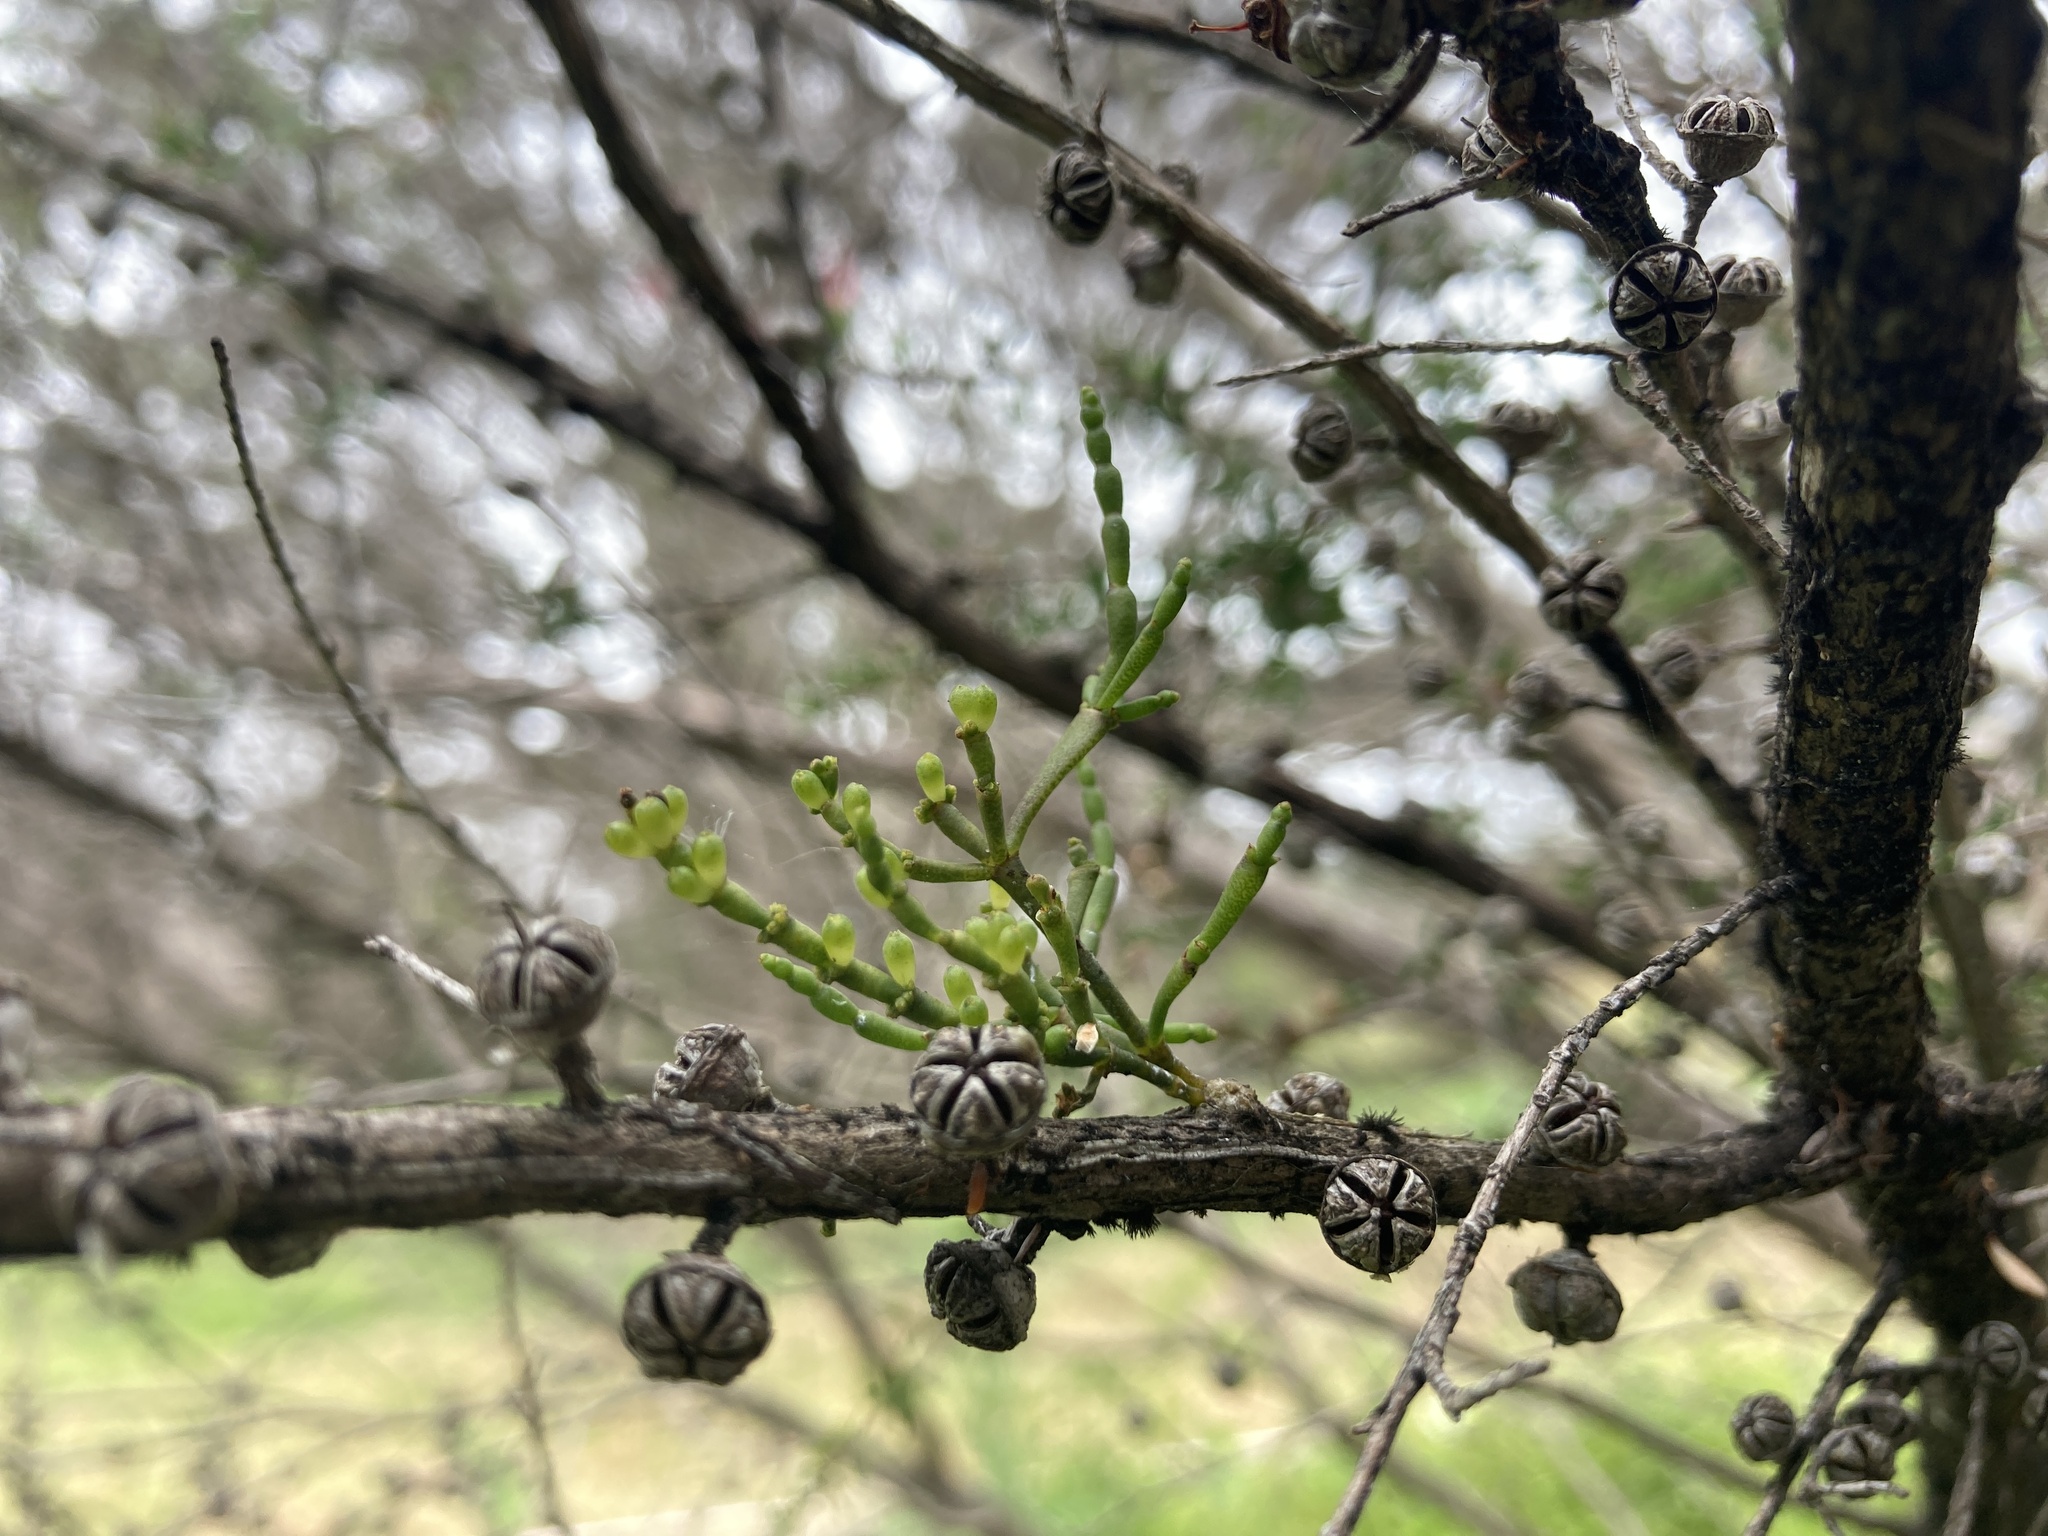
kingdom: Plantae
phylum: Tracheophyta
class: Magnoliopsida
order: Santalales
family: Viscaceae
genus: Korthalsella
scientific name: Korthalsella salicornioides
